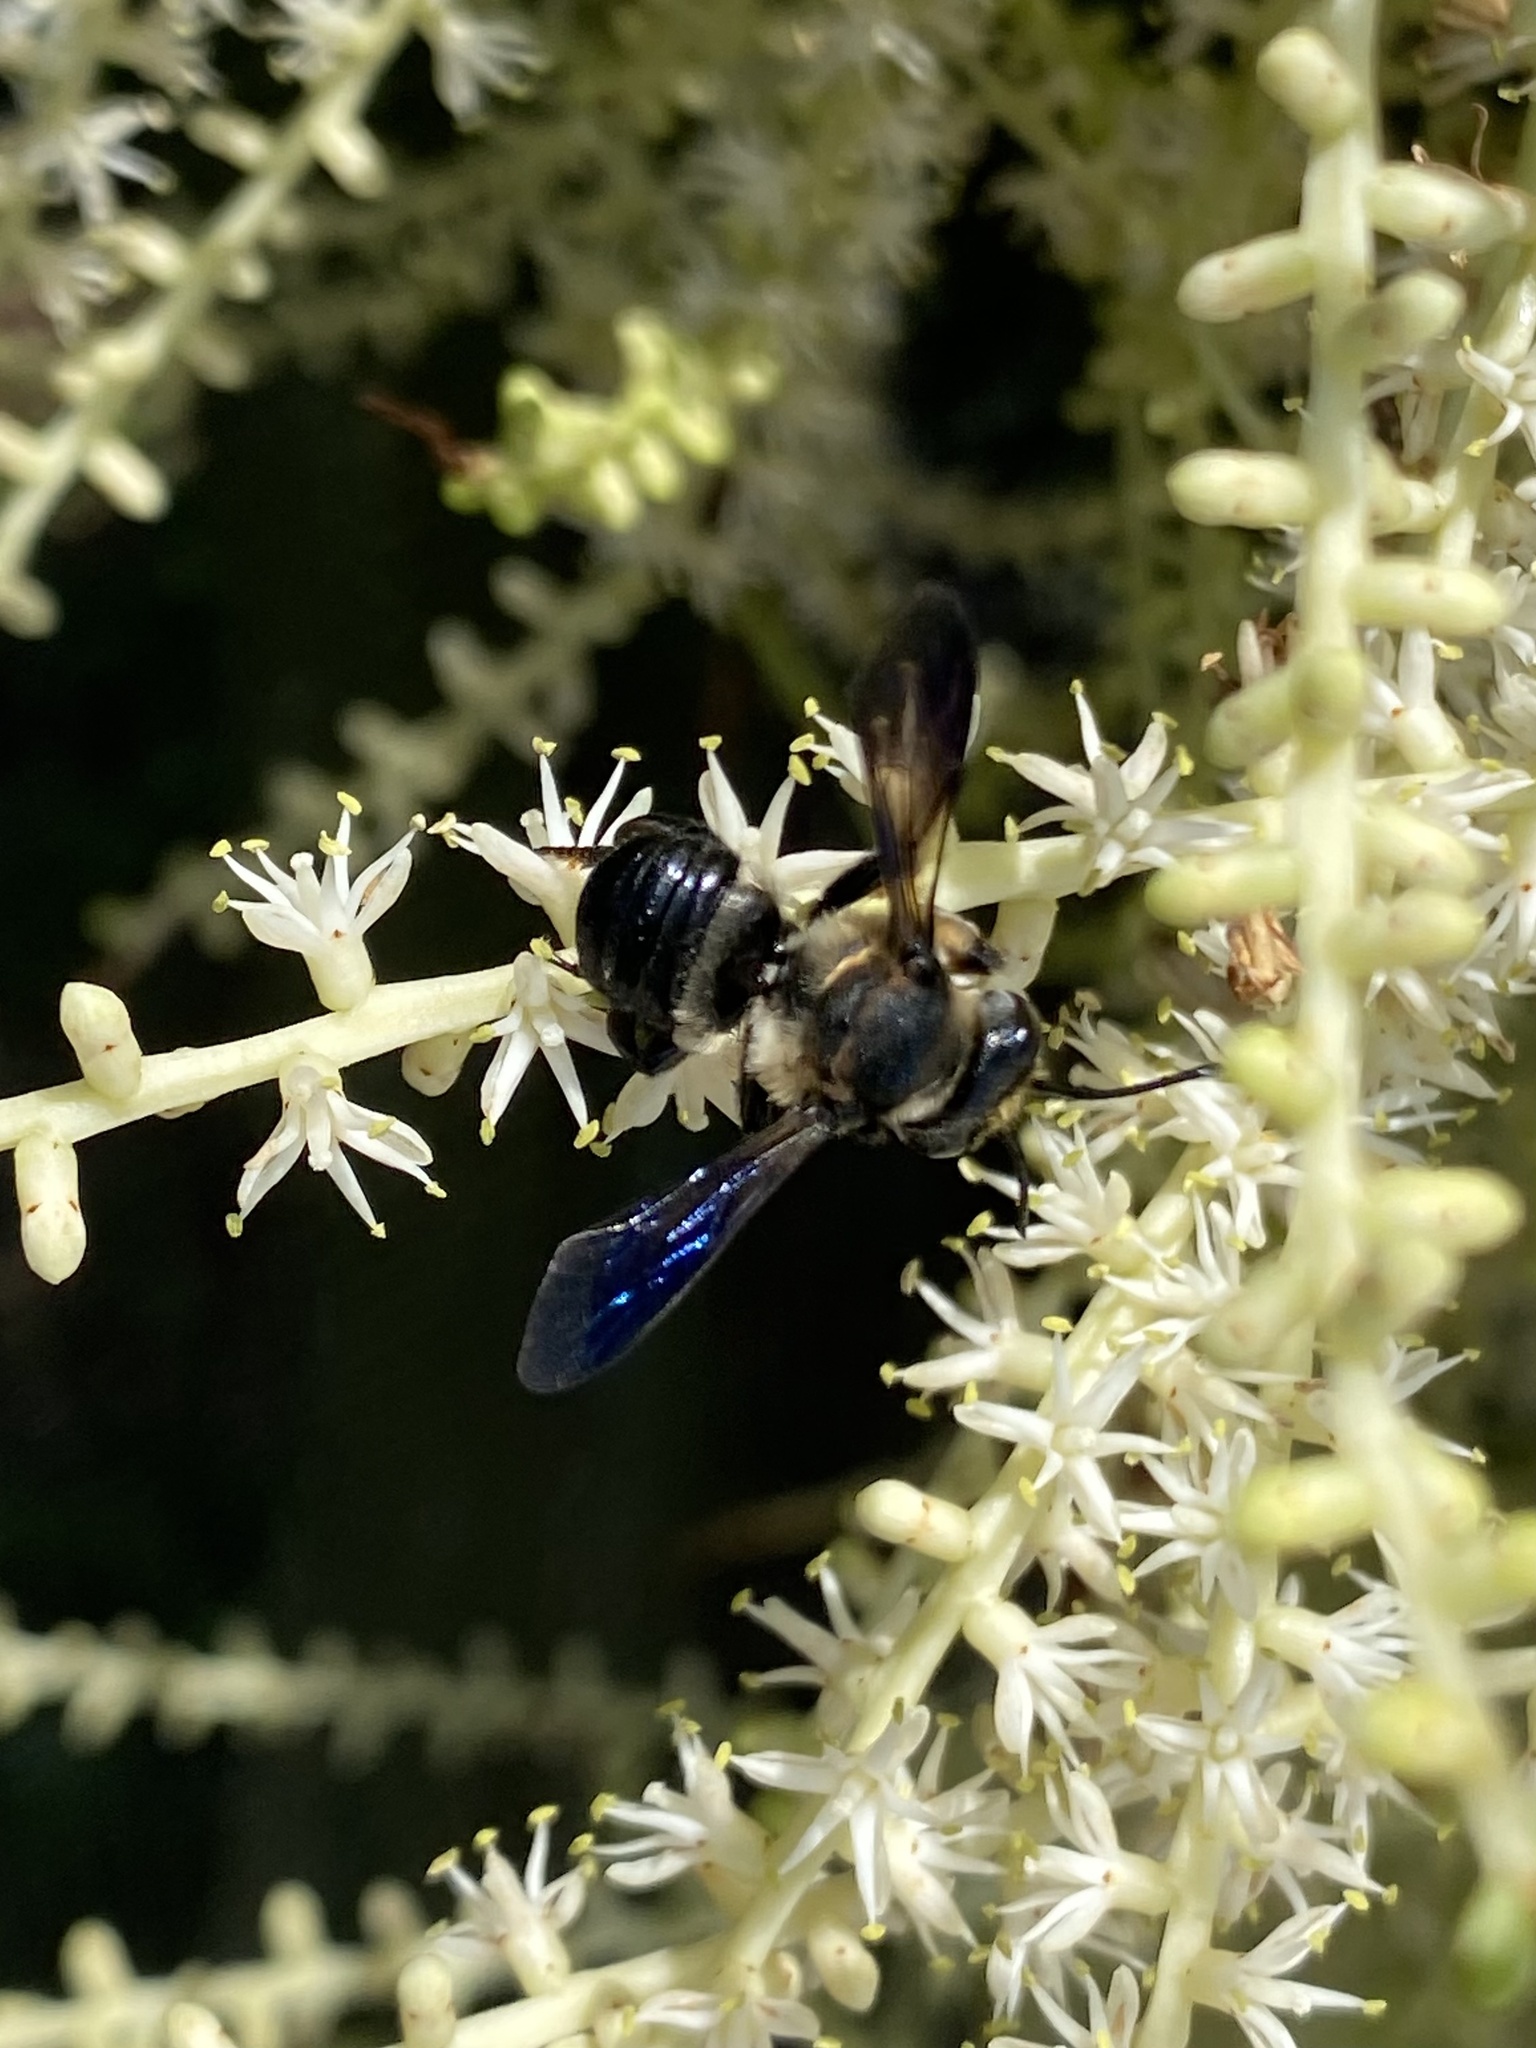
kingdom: Animalia
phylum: Arthropoda
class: Insecta
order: Hymenoptera
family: Megachilidae
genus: Megachile
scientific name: Megachile xylocopoides
